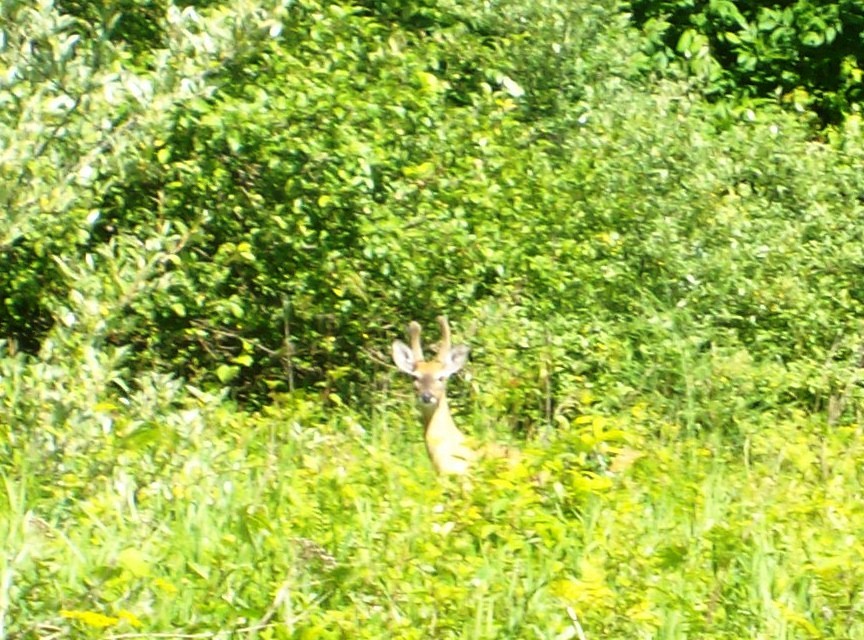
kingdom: Animalia
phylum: Chordata
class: Mammalia
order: Artiodactyla
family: Cervidae
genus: Odocoileus
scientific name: Odocoileus virginianus
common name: White-tailed deer
